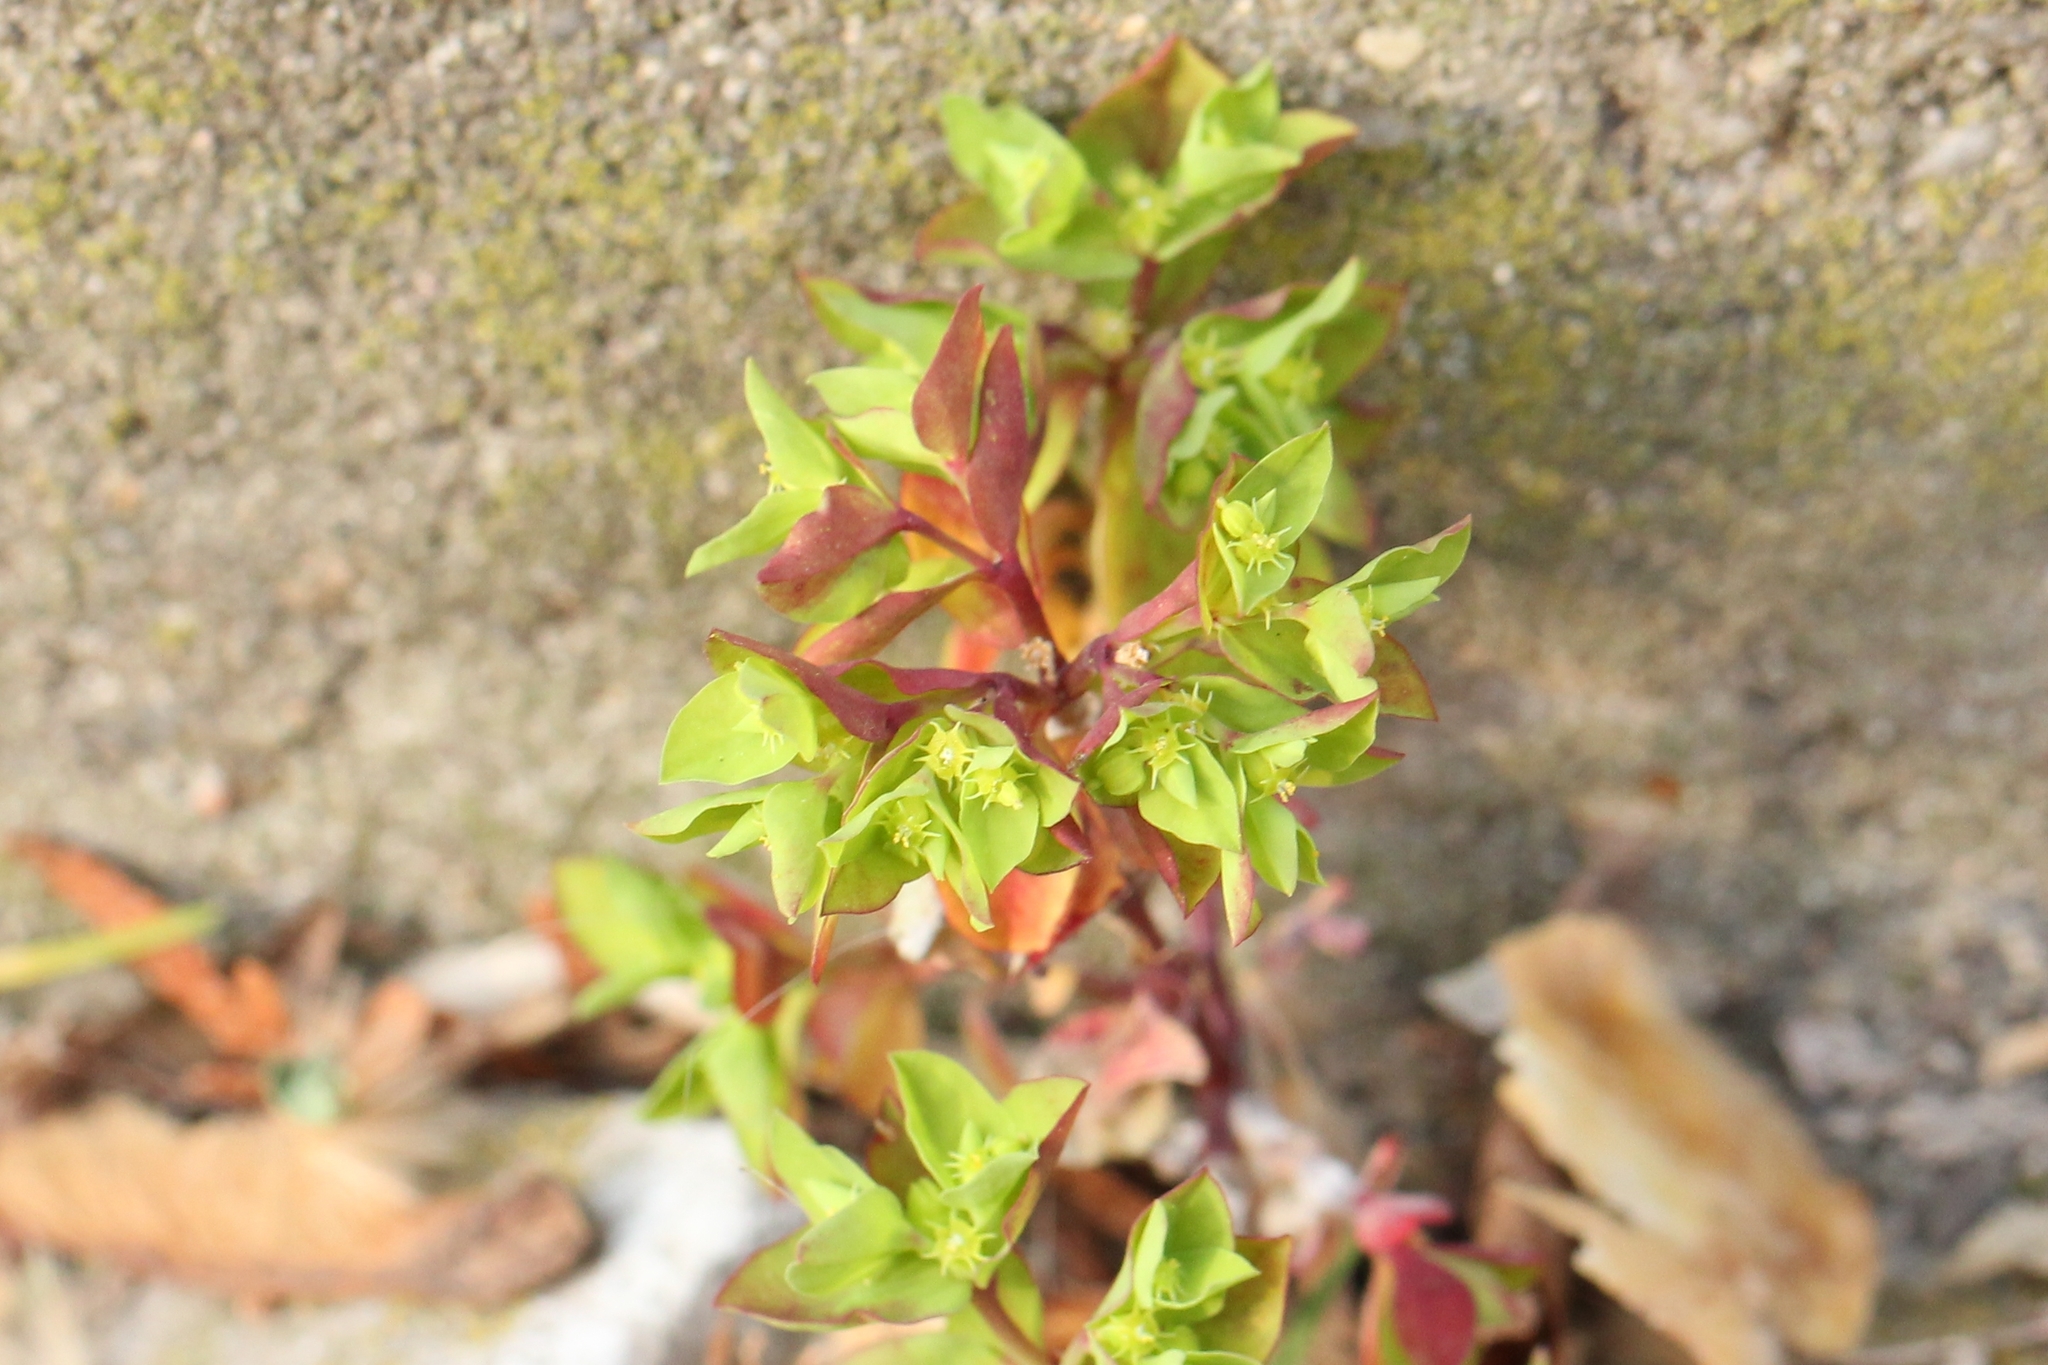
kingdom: Plantae
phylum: Tracheophyta
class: Magnoliopsida
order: Malpighiales
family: Euphorbiaceae
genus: Euphorbia
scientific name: Euphorbia peplus
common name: Petty spurge
